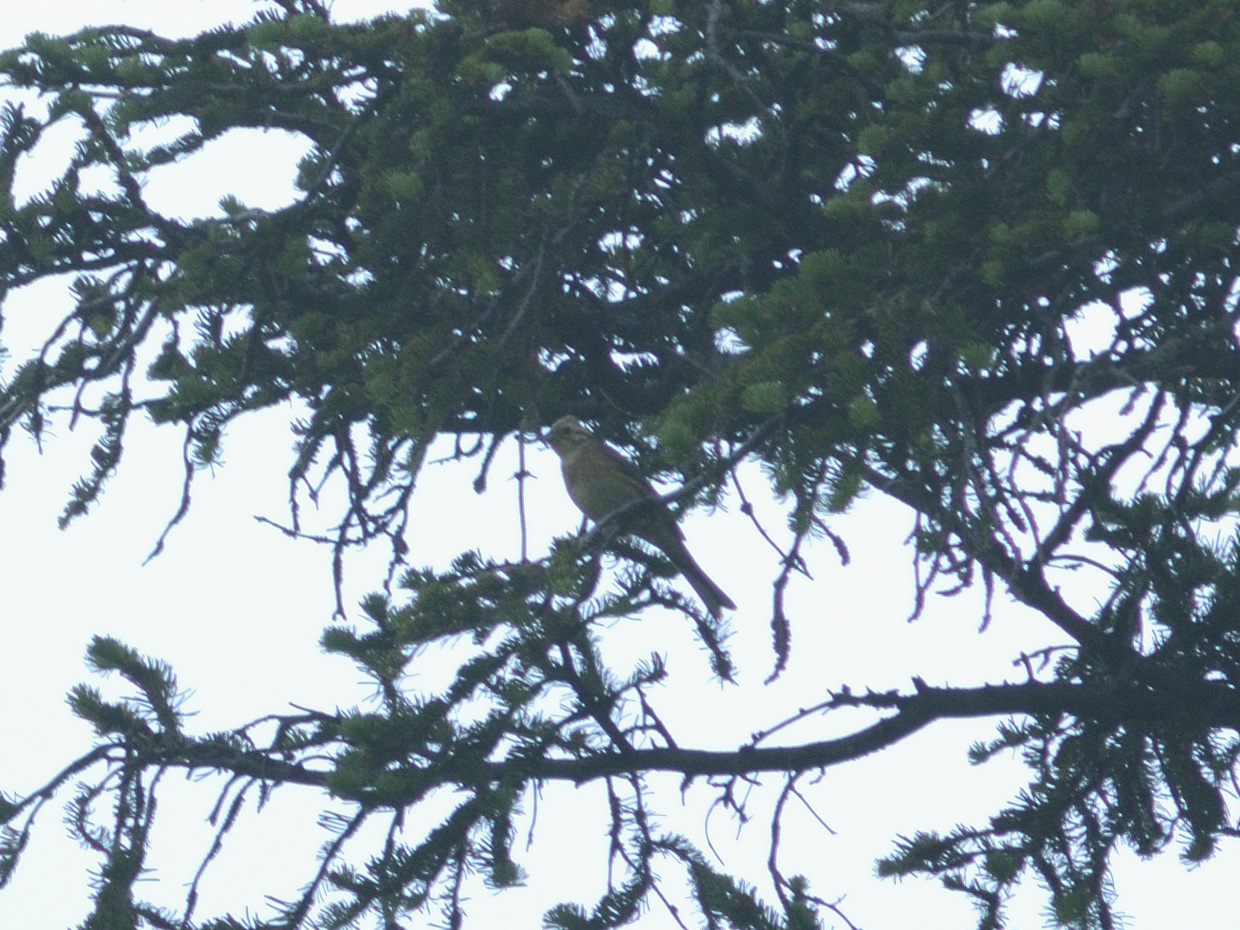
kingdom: Animalia
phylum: Chordata
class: Aves
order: Passeriformes
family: Emberizidae
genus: Emberiza
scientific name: Emberiza citrinella
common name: Yellowhammer
